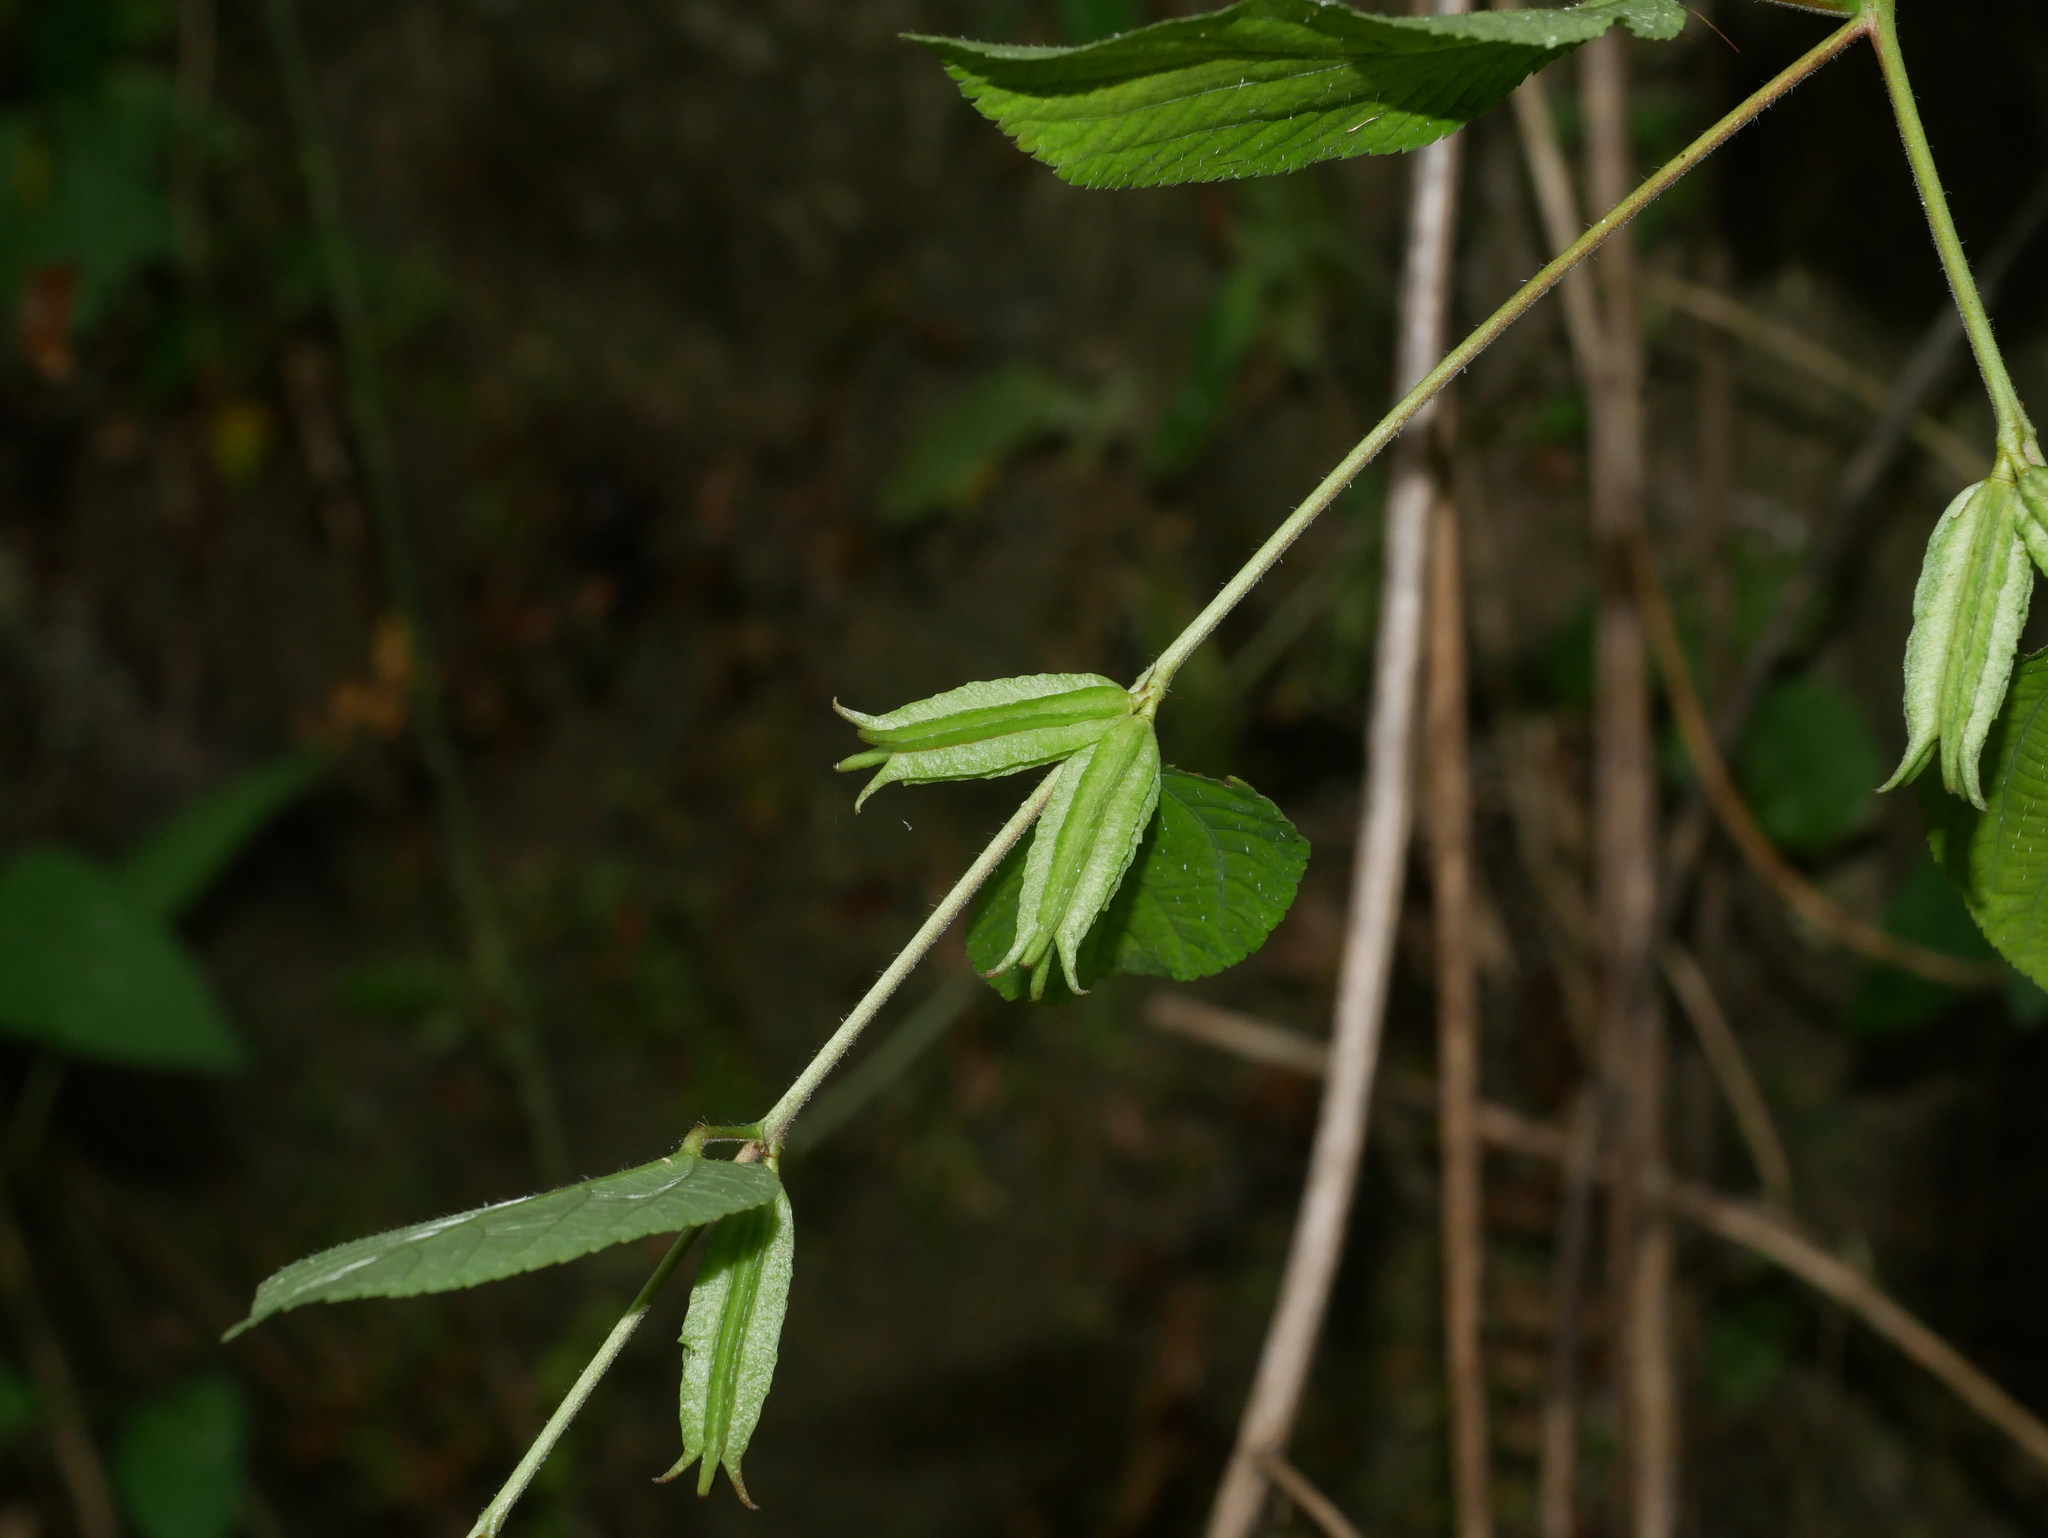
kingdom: Plantae
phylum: Tracheophyta
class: Magnoliopsida
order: Malvales
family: Malvaceae
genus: Corchorus
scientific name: Corchorus aestuans
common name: Jute
